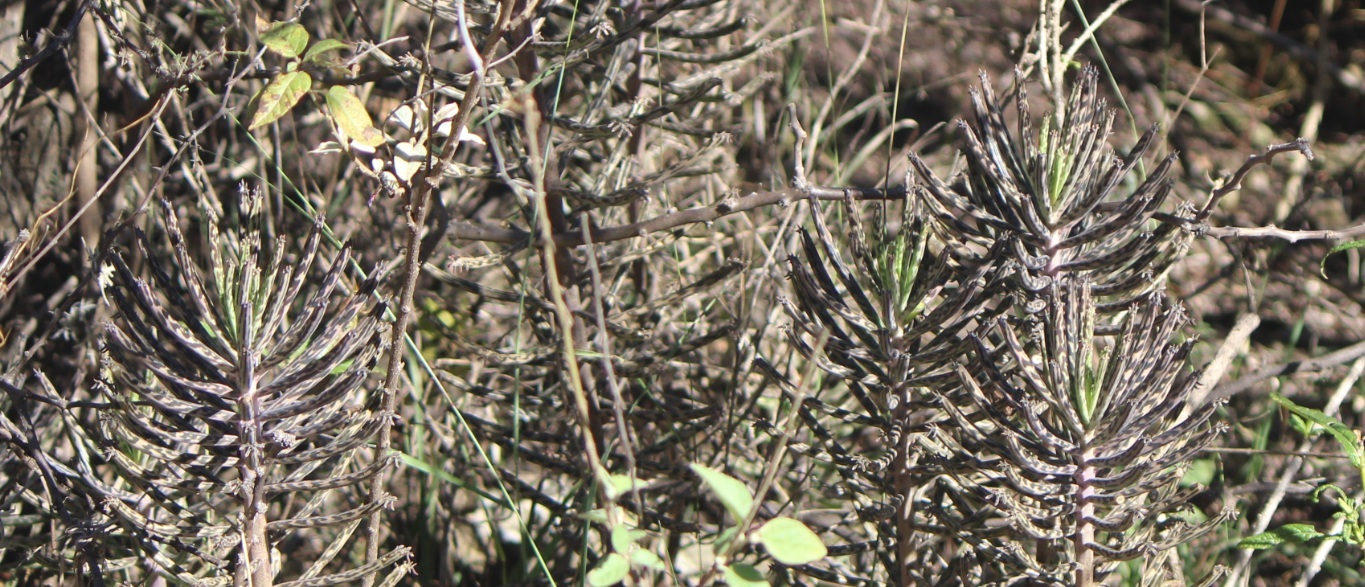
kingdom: Plantae
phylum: Tracheophyta
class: Magnoliopsida
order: Saxifragales
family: Crassulaceae
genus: Kalanchoe
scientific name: Kalanchoe delagoensis
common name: Chandelier plant
